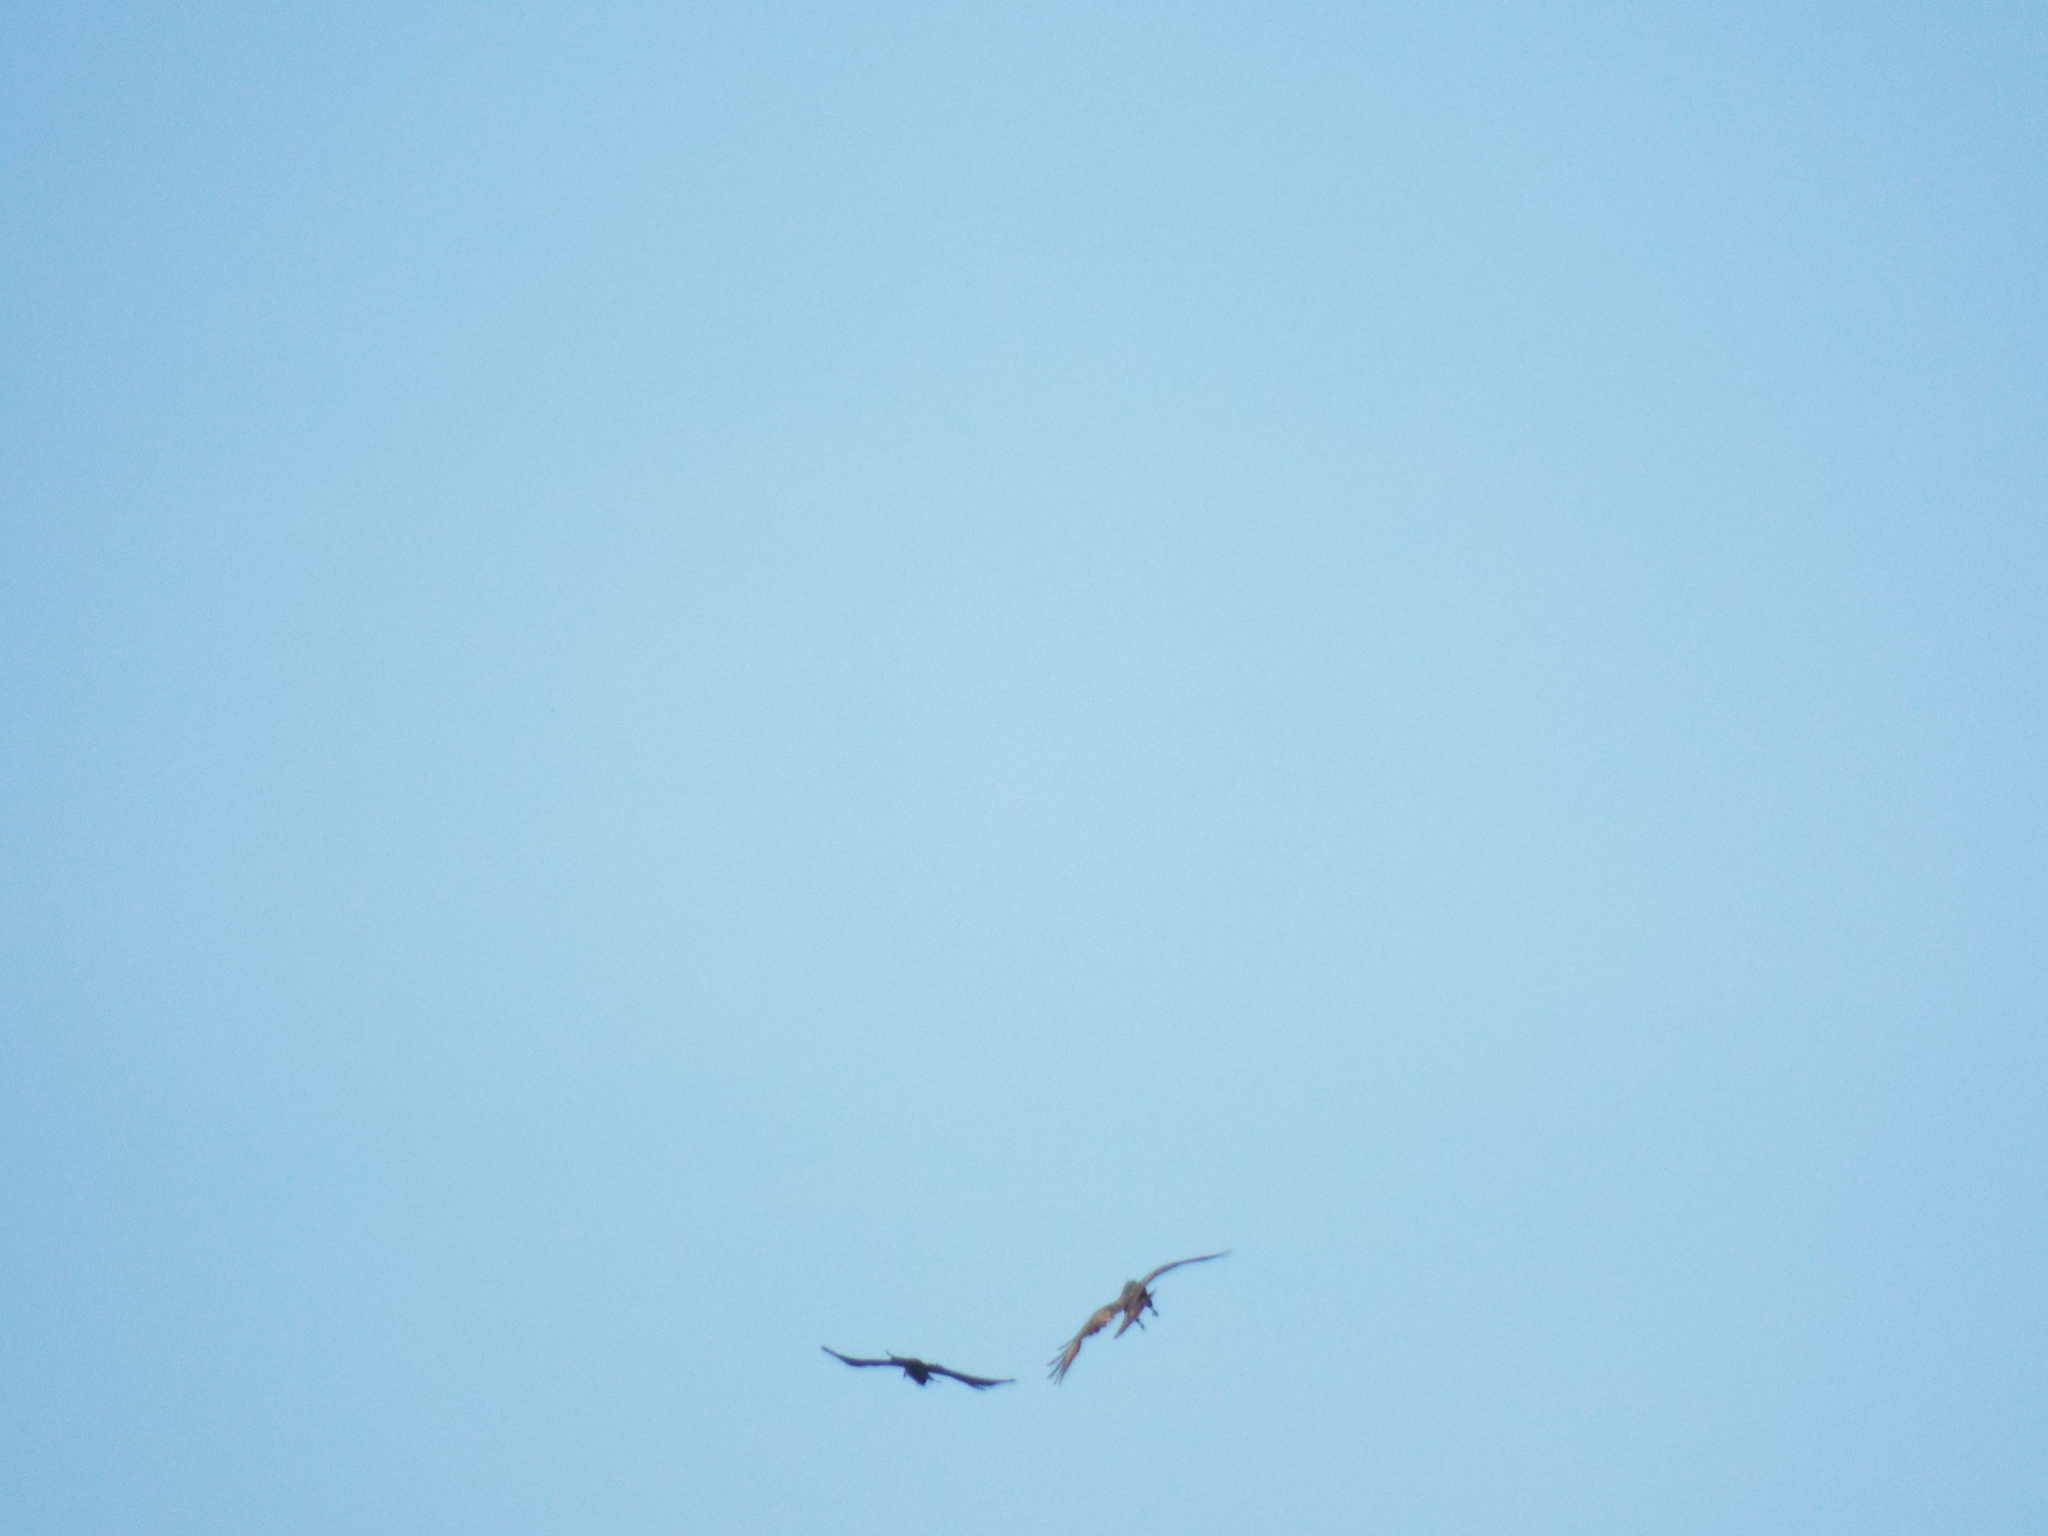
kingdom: Animalia
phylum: Chordata
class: Aves
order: Accipitriformes
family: Accipitridae
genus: Buteo
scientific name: Buteo buteo
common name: Common buzzard
